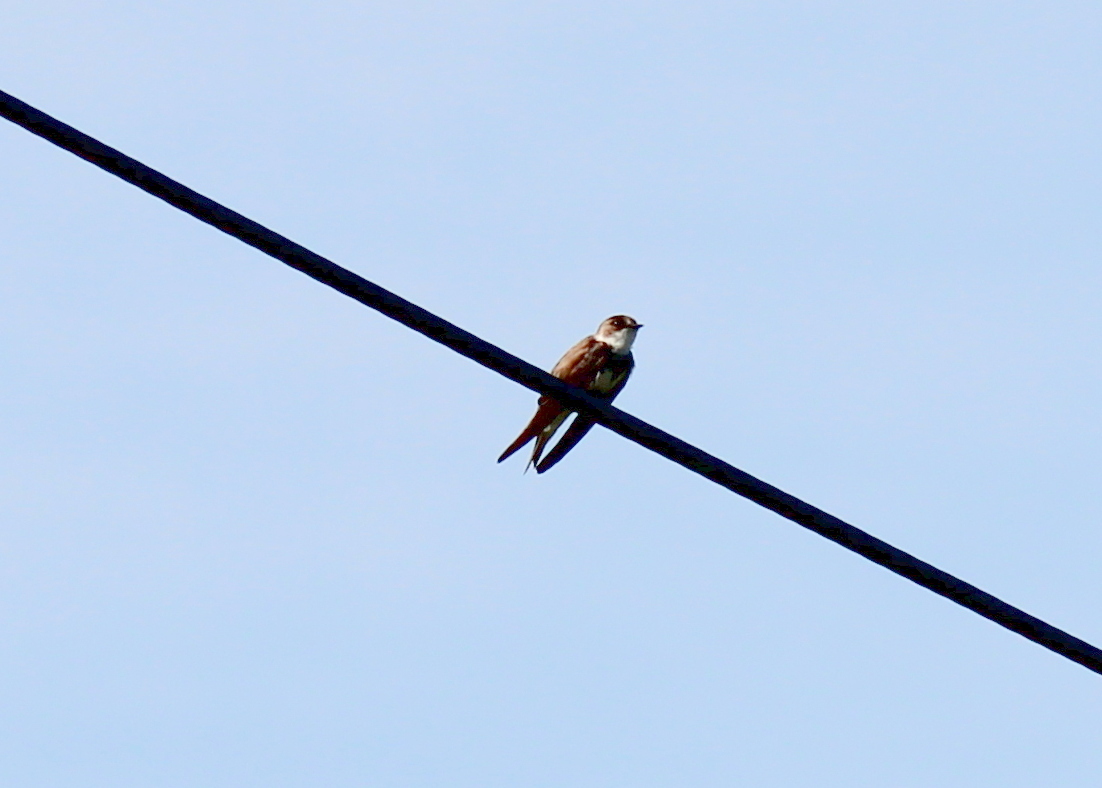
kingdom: Animalia
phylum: Chordata
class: Aves
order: Passeriformes
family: Hirundinidae
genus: Riparia
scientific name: Riparia riparia
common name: Sand martin
